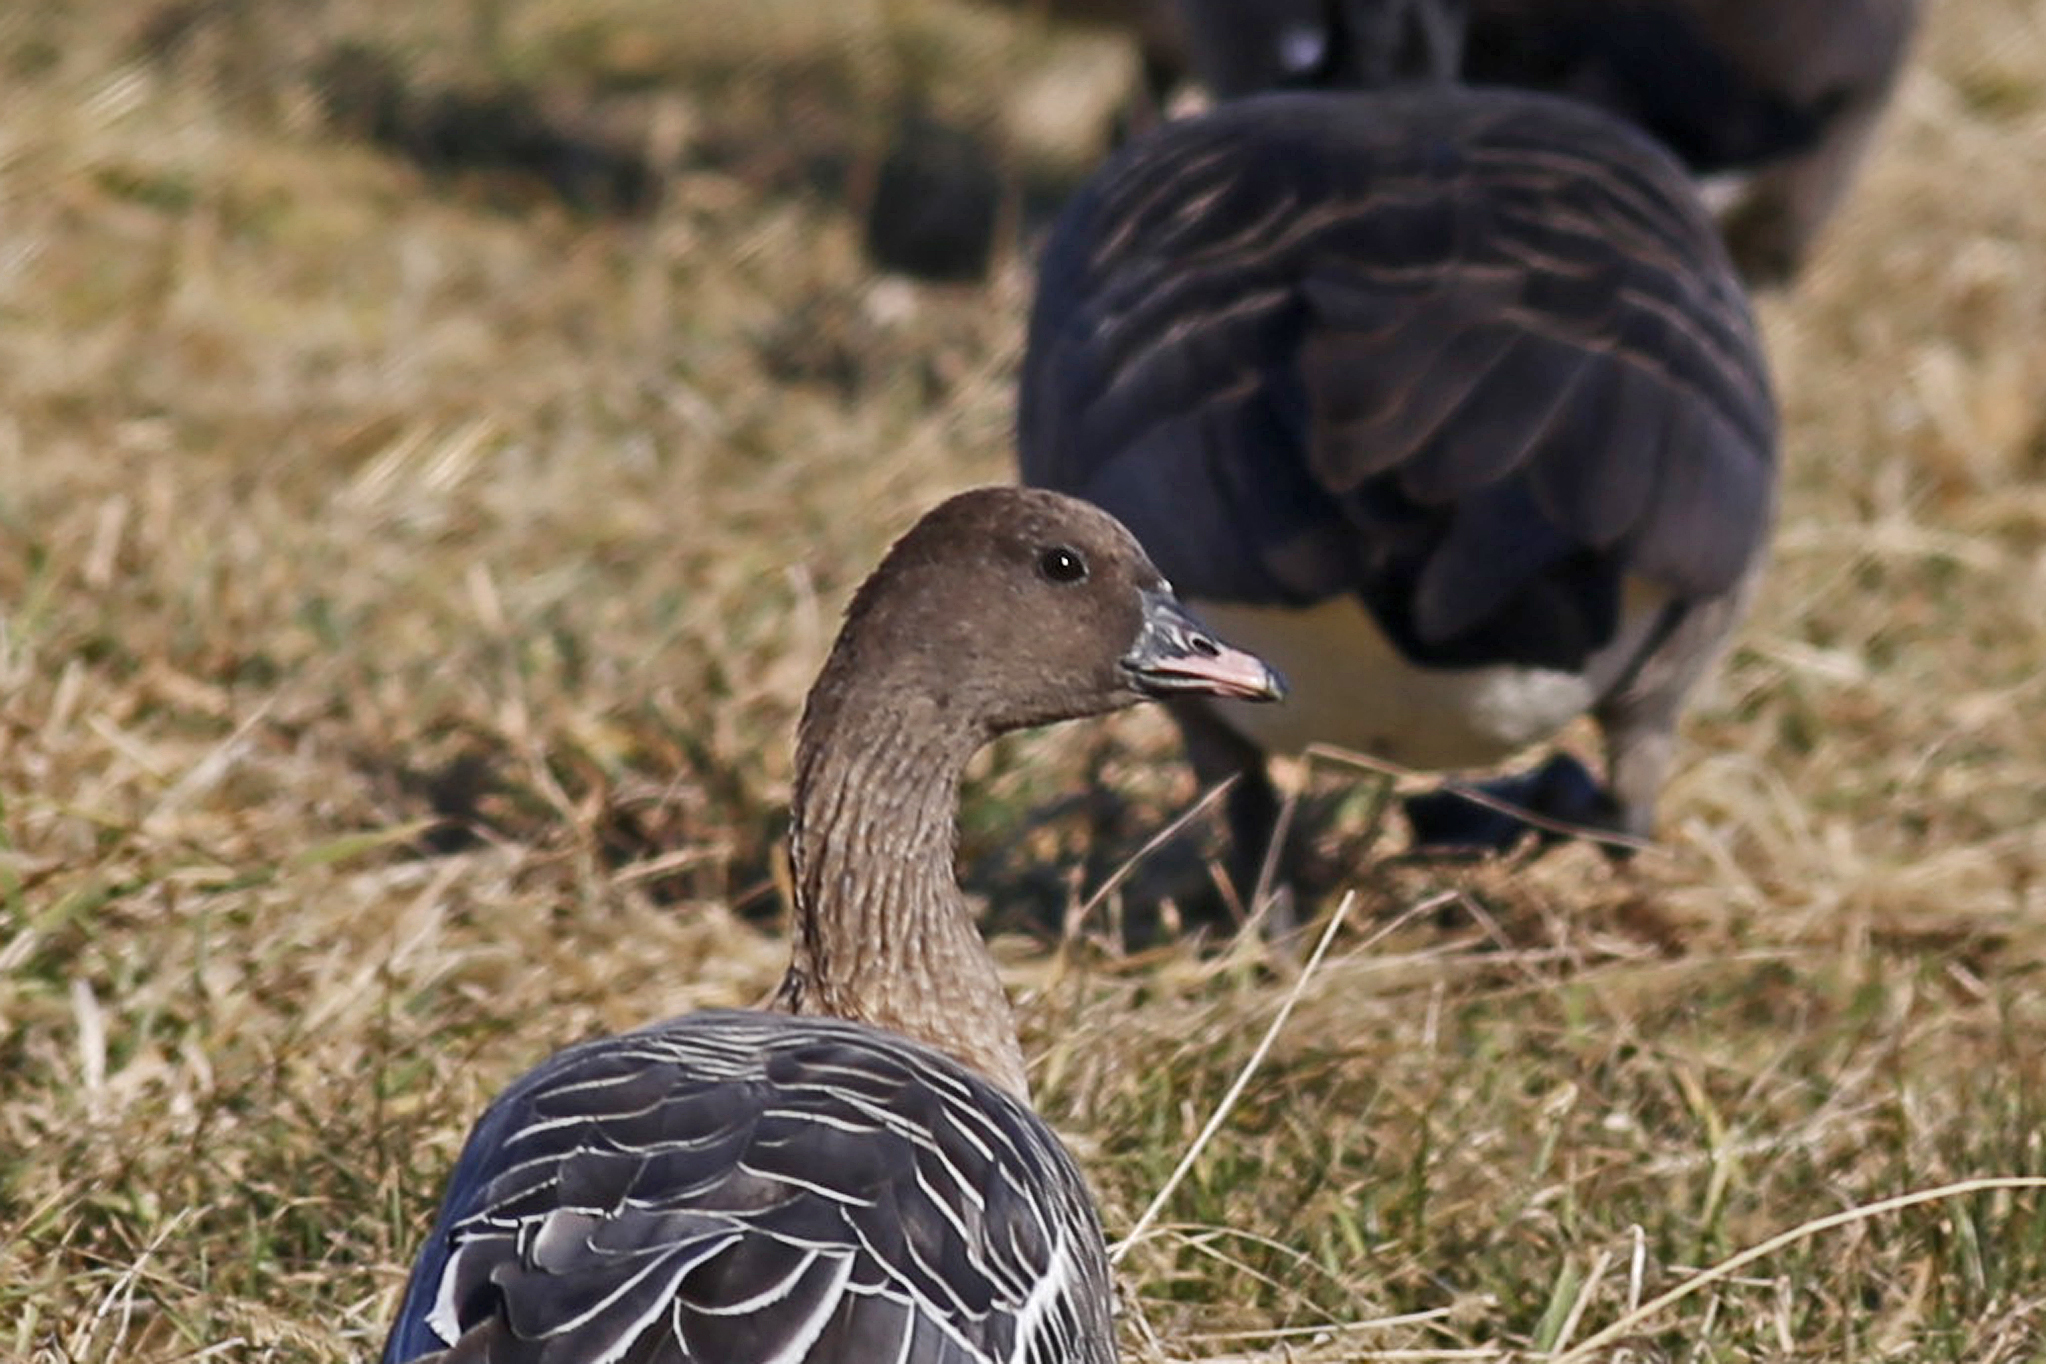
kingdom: Animalia
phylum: Chordata
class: Aves
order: Anseriformes
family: Anatidae
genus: Anser
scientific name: Anser brachyrhynchus
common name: Pink-footed goose
